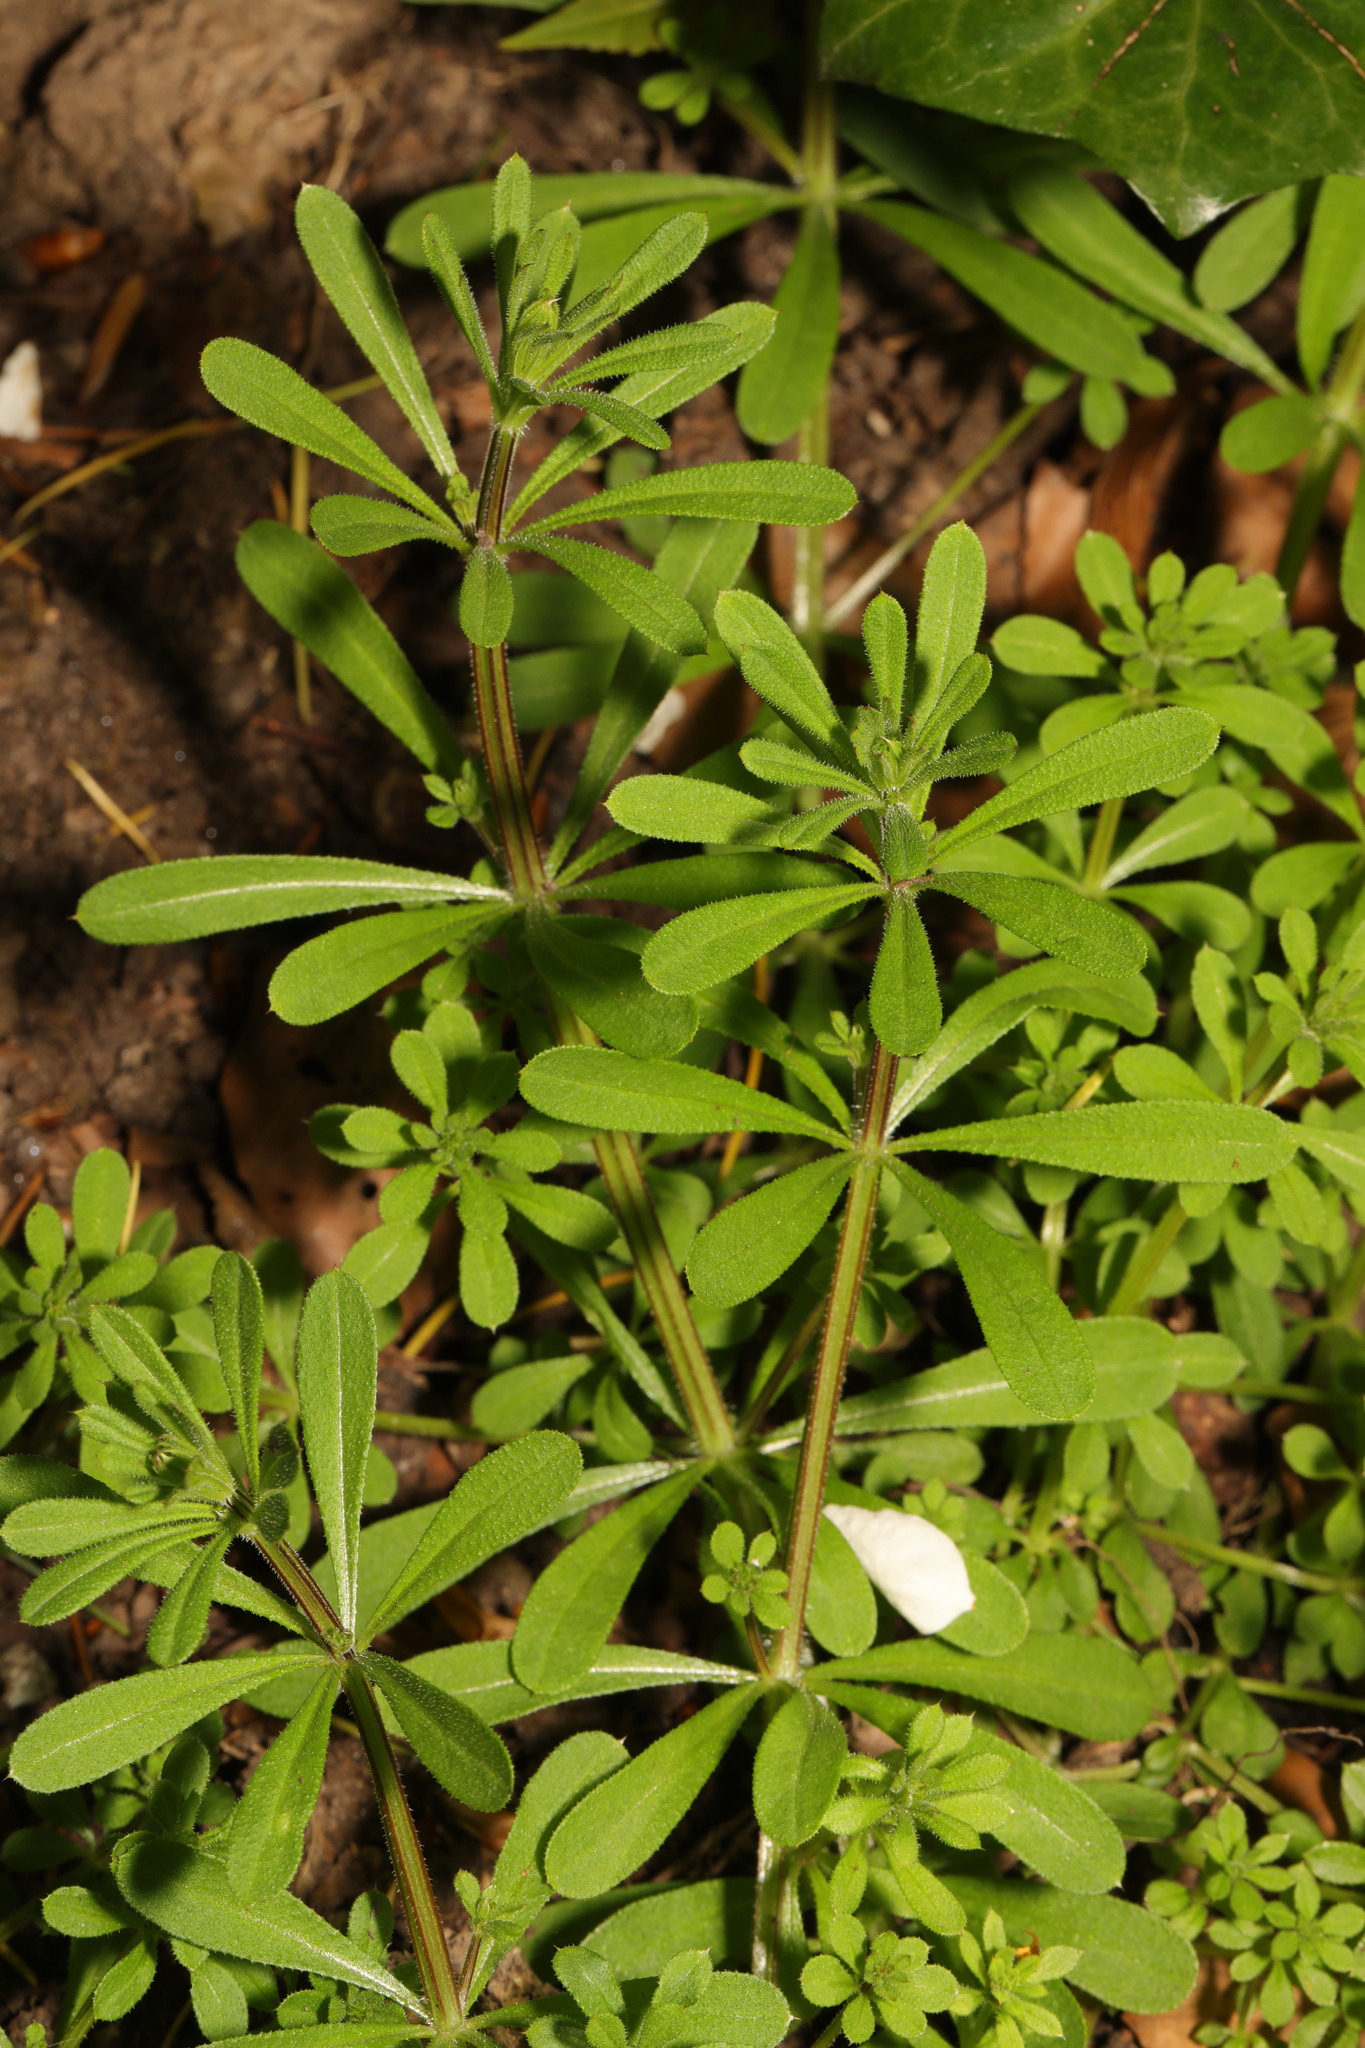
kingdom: Plantae
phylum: Tracheophyta
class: Magnoliopsida
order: Gentianales
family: Rubiaceae
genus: Galium
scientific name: Galium aparine
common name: Cleavers
